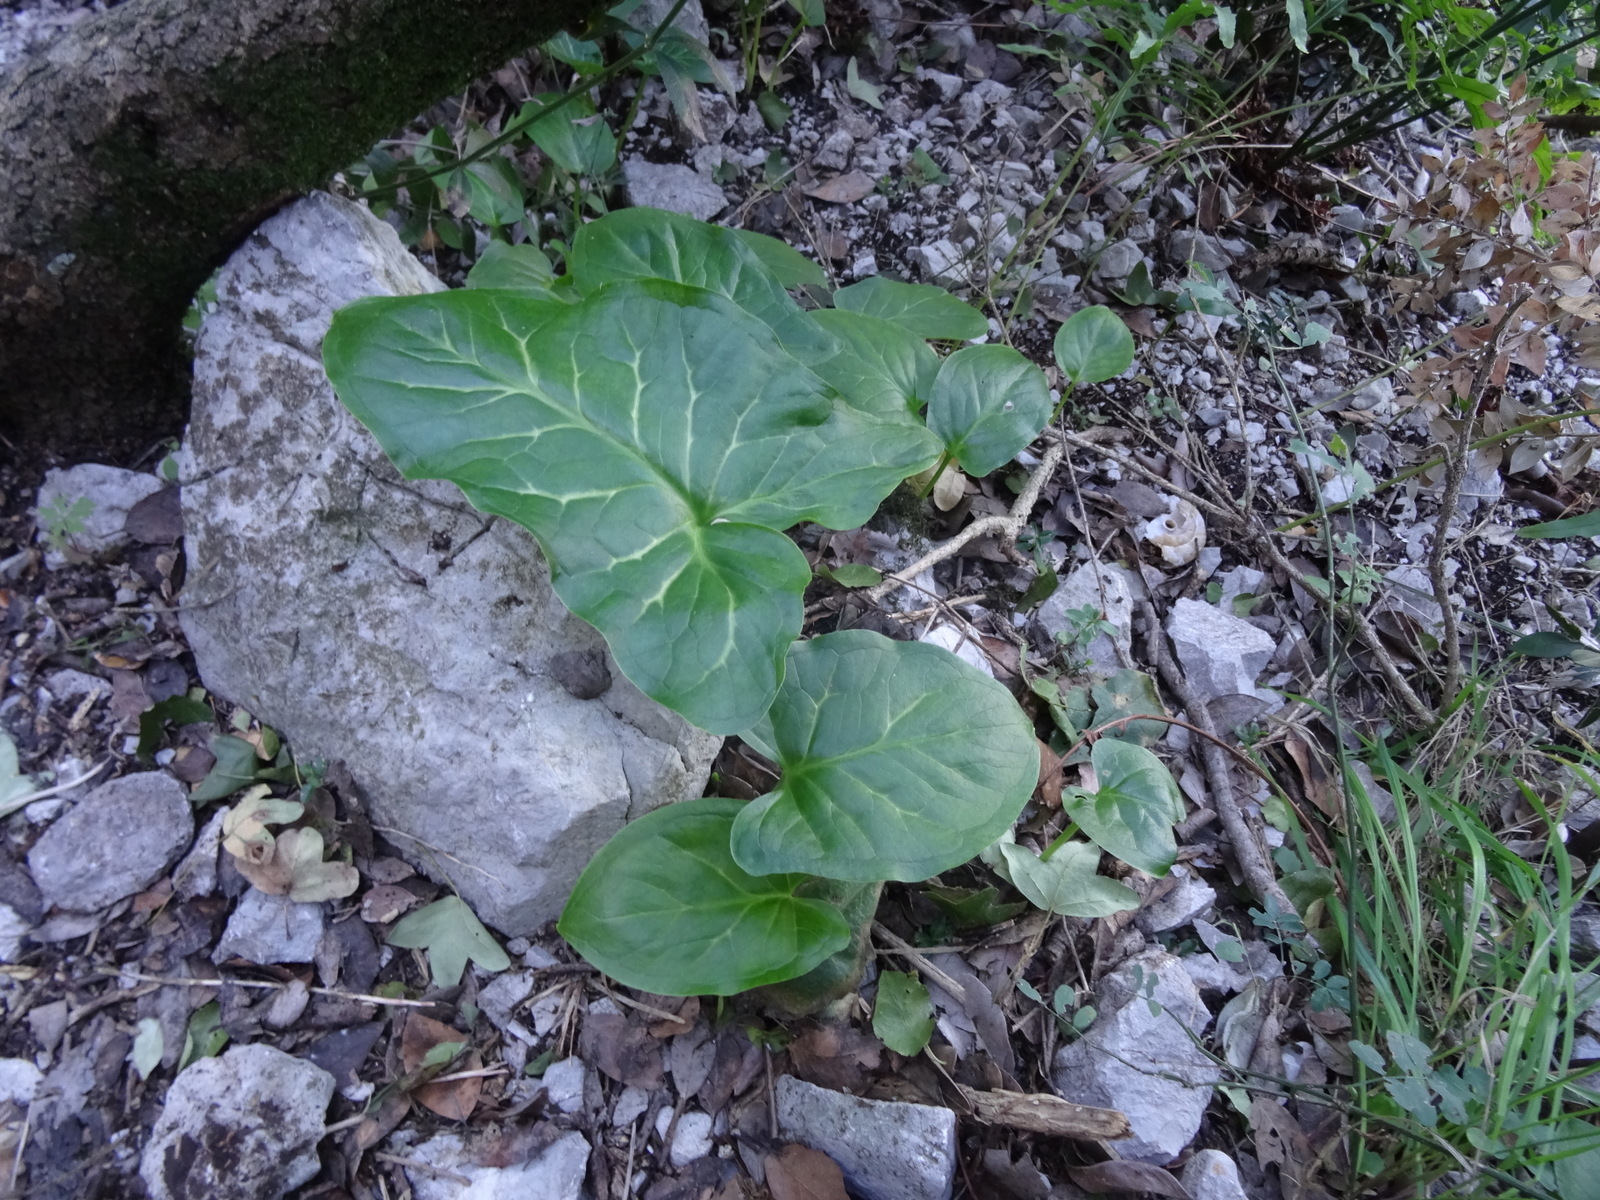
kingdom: Plantae
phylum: Tracheophyta
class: Liliopsida
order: Alismatales
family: Araceae
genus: Arum
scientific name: Arum italicum
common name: Italian lords-and-ladies
